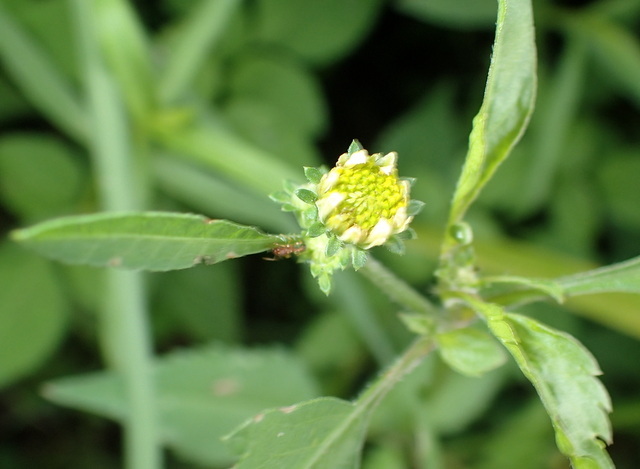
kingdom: Plantae
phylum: Tracheophyta
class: Magnoliopsida
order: Asterales
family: Asteraceae
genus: Bidens
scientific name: Bidens alba
